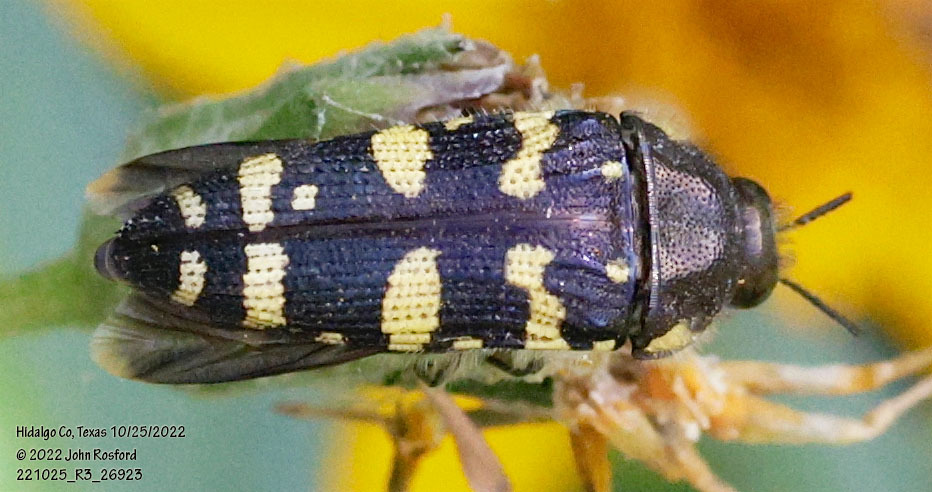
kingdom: Animalia
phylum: Arthropoda
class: Insecta
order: Coleoptera
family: Buprestidae
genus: Acmaeodera
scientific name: Acmaeodera macra
